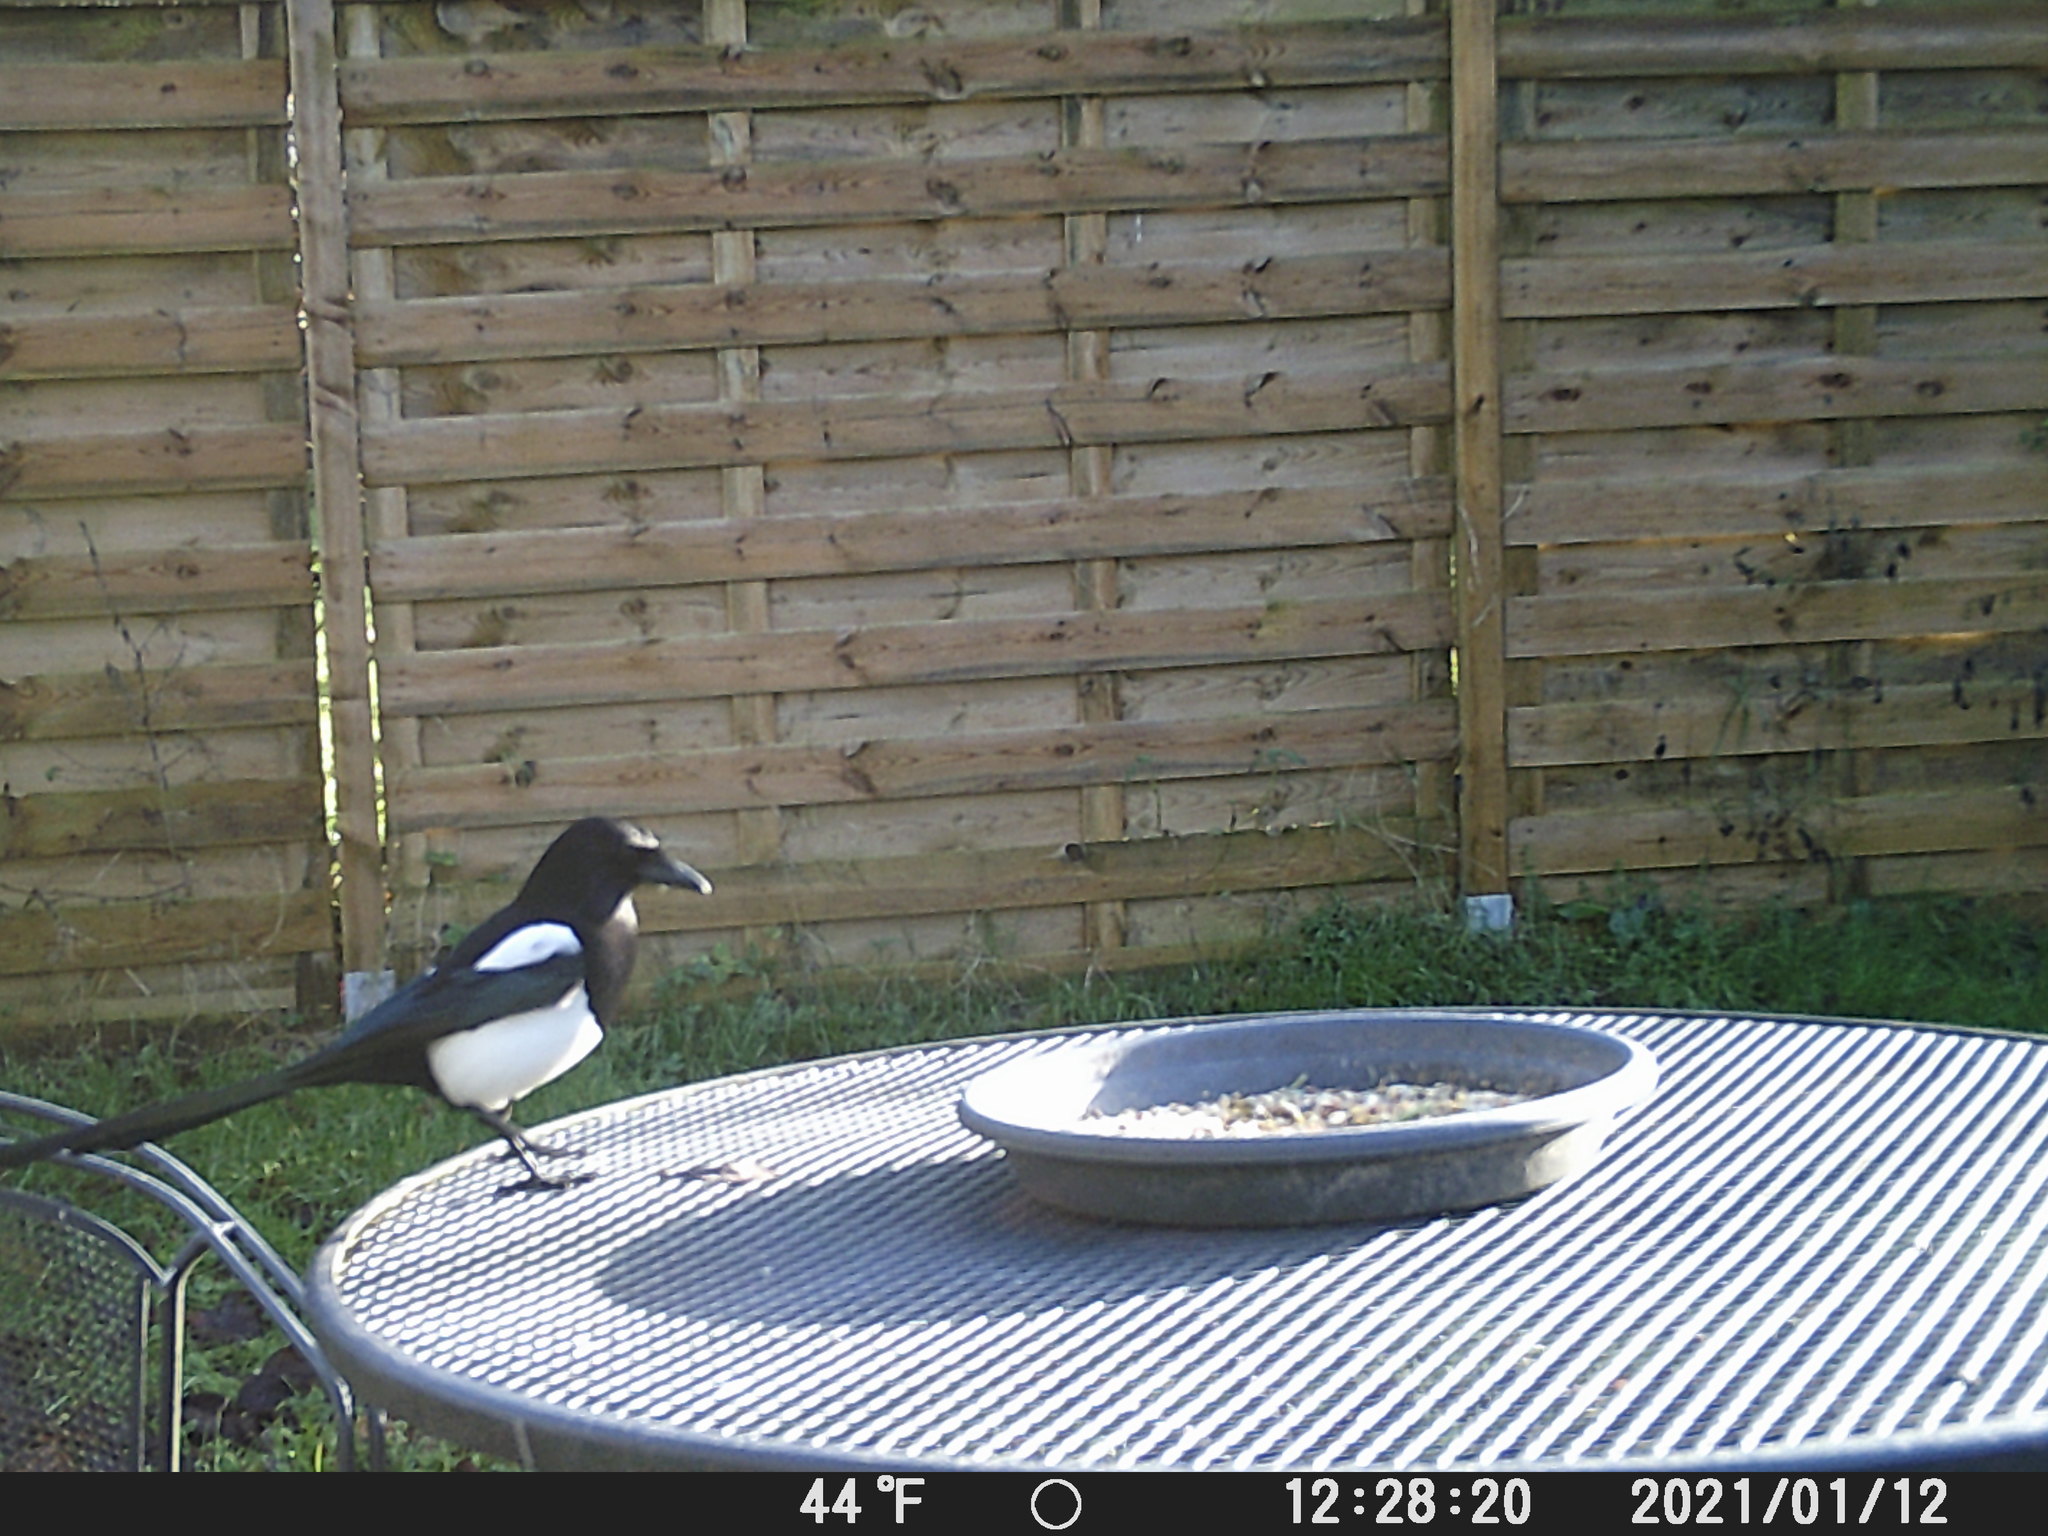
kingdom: Animalia
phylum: Chordata
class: Aves
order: Passeriformes
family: Corvidae
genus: Pica
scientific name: Pica pica
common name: Eurasian magpie
